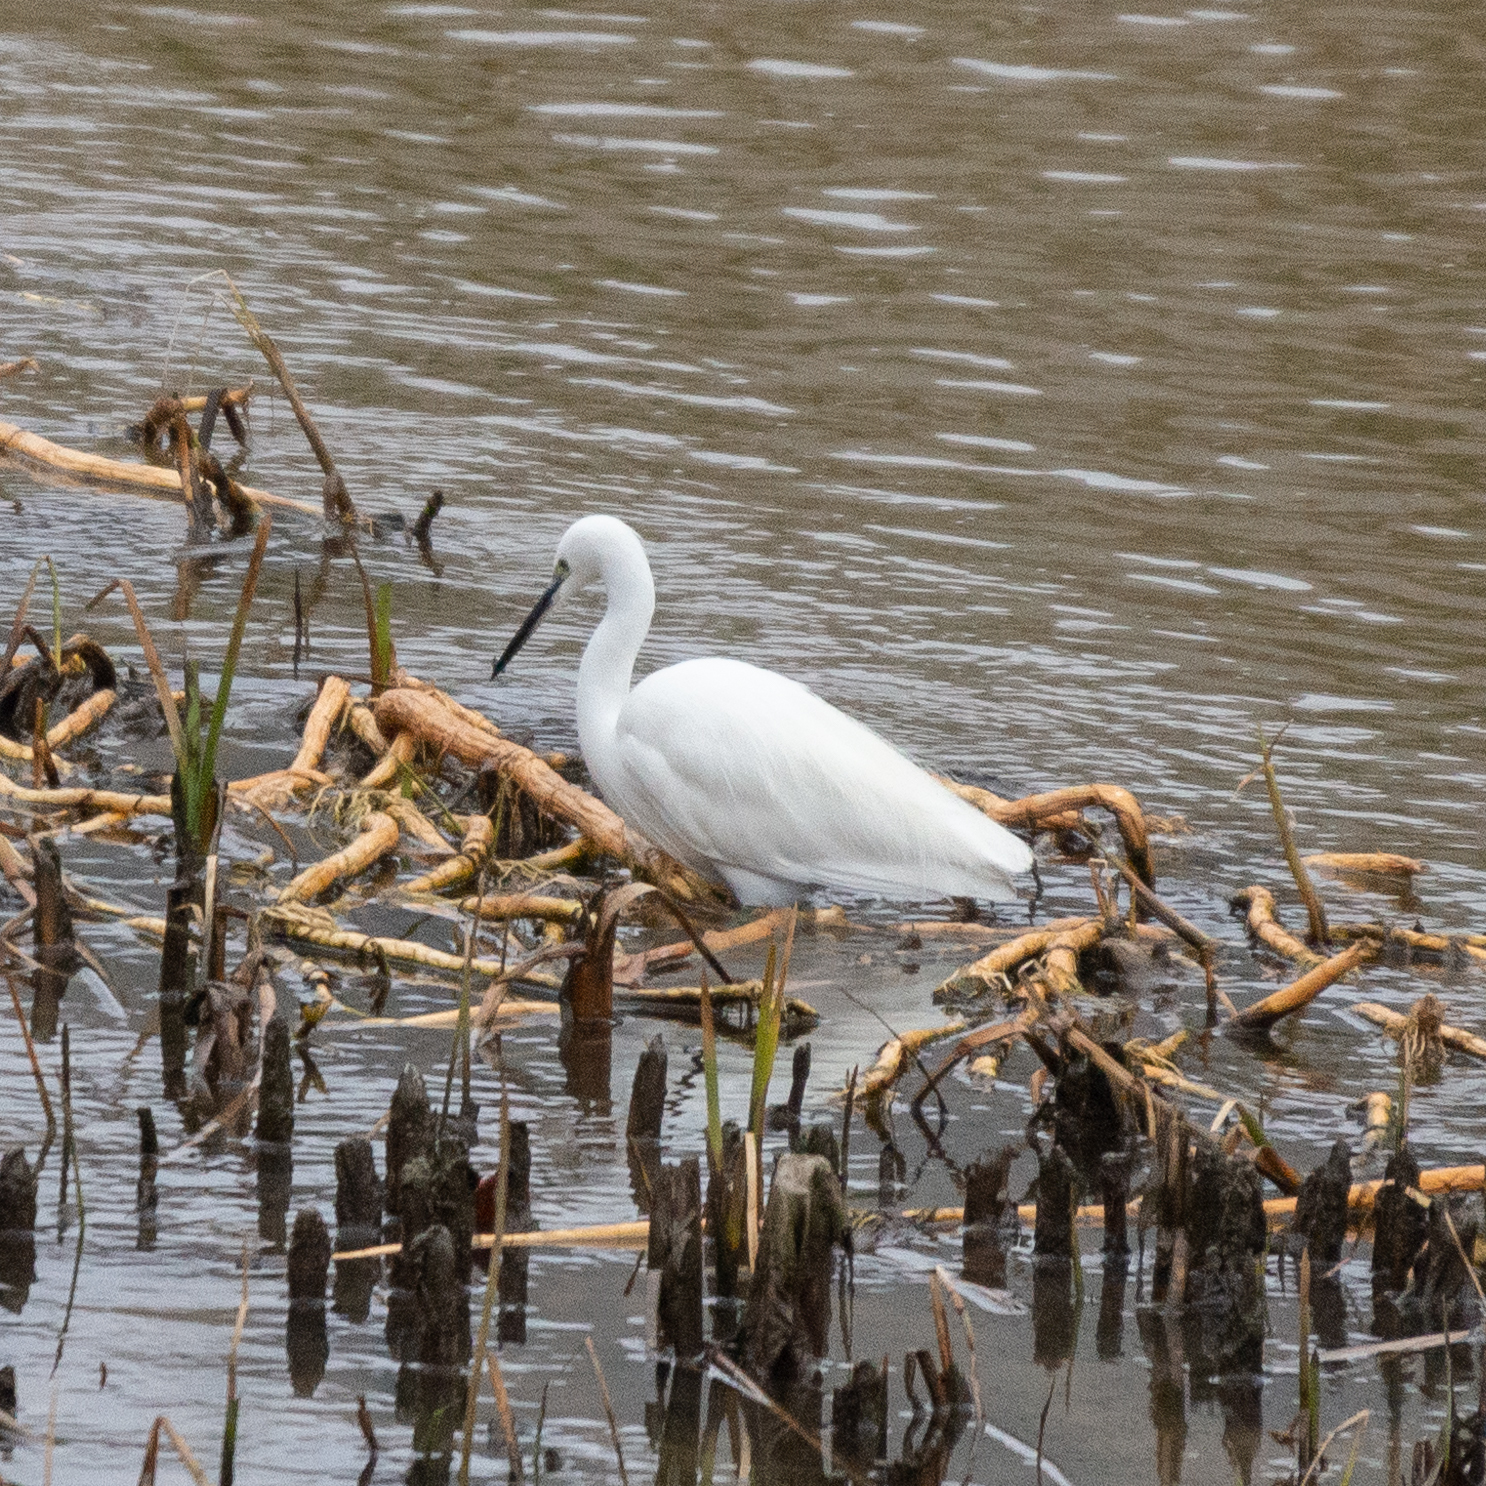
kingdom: Animalia
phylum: Chordata
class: Aves
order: Pelecaniformes
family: Ardeidae
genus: Egretta
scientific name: Egretta garzetta
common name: Little egret
